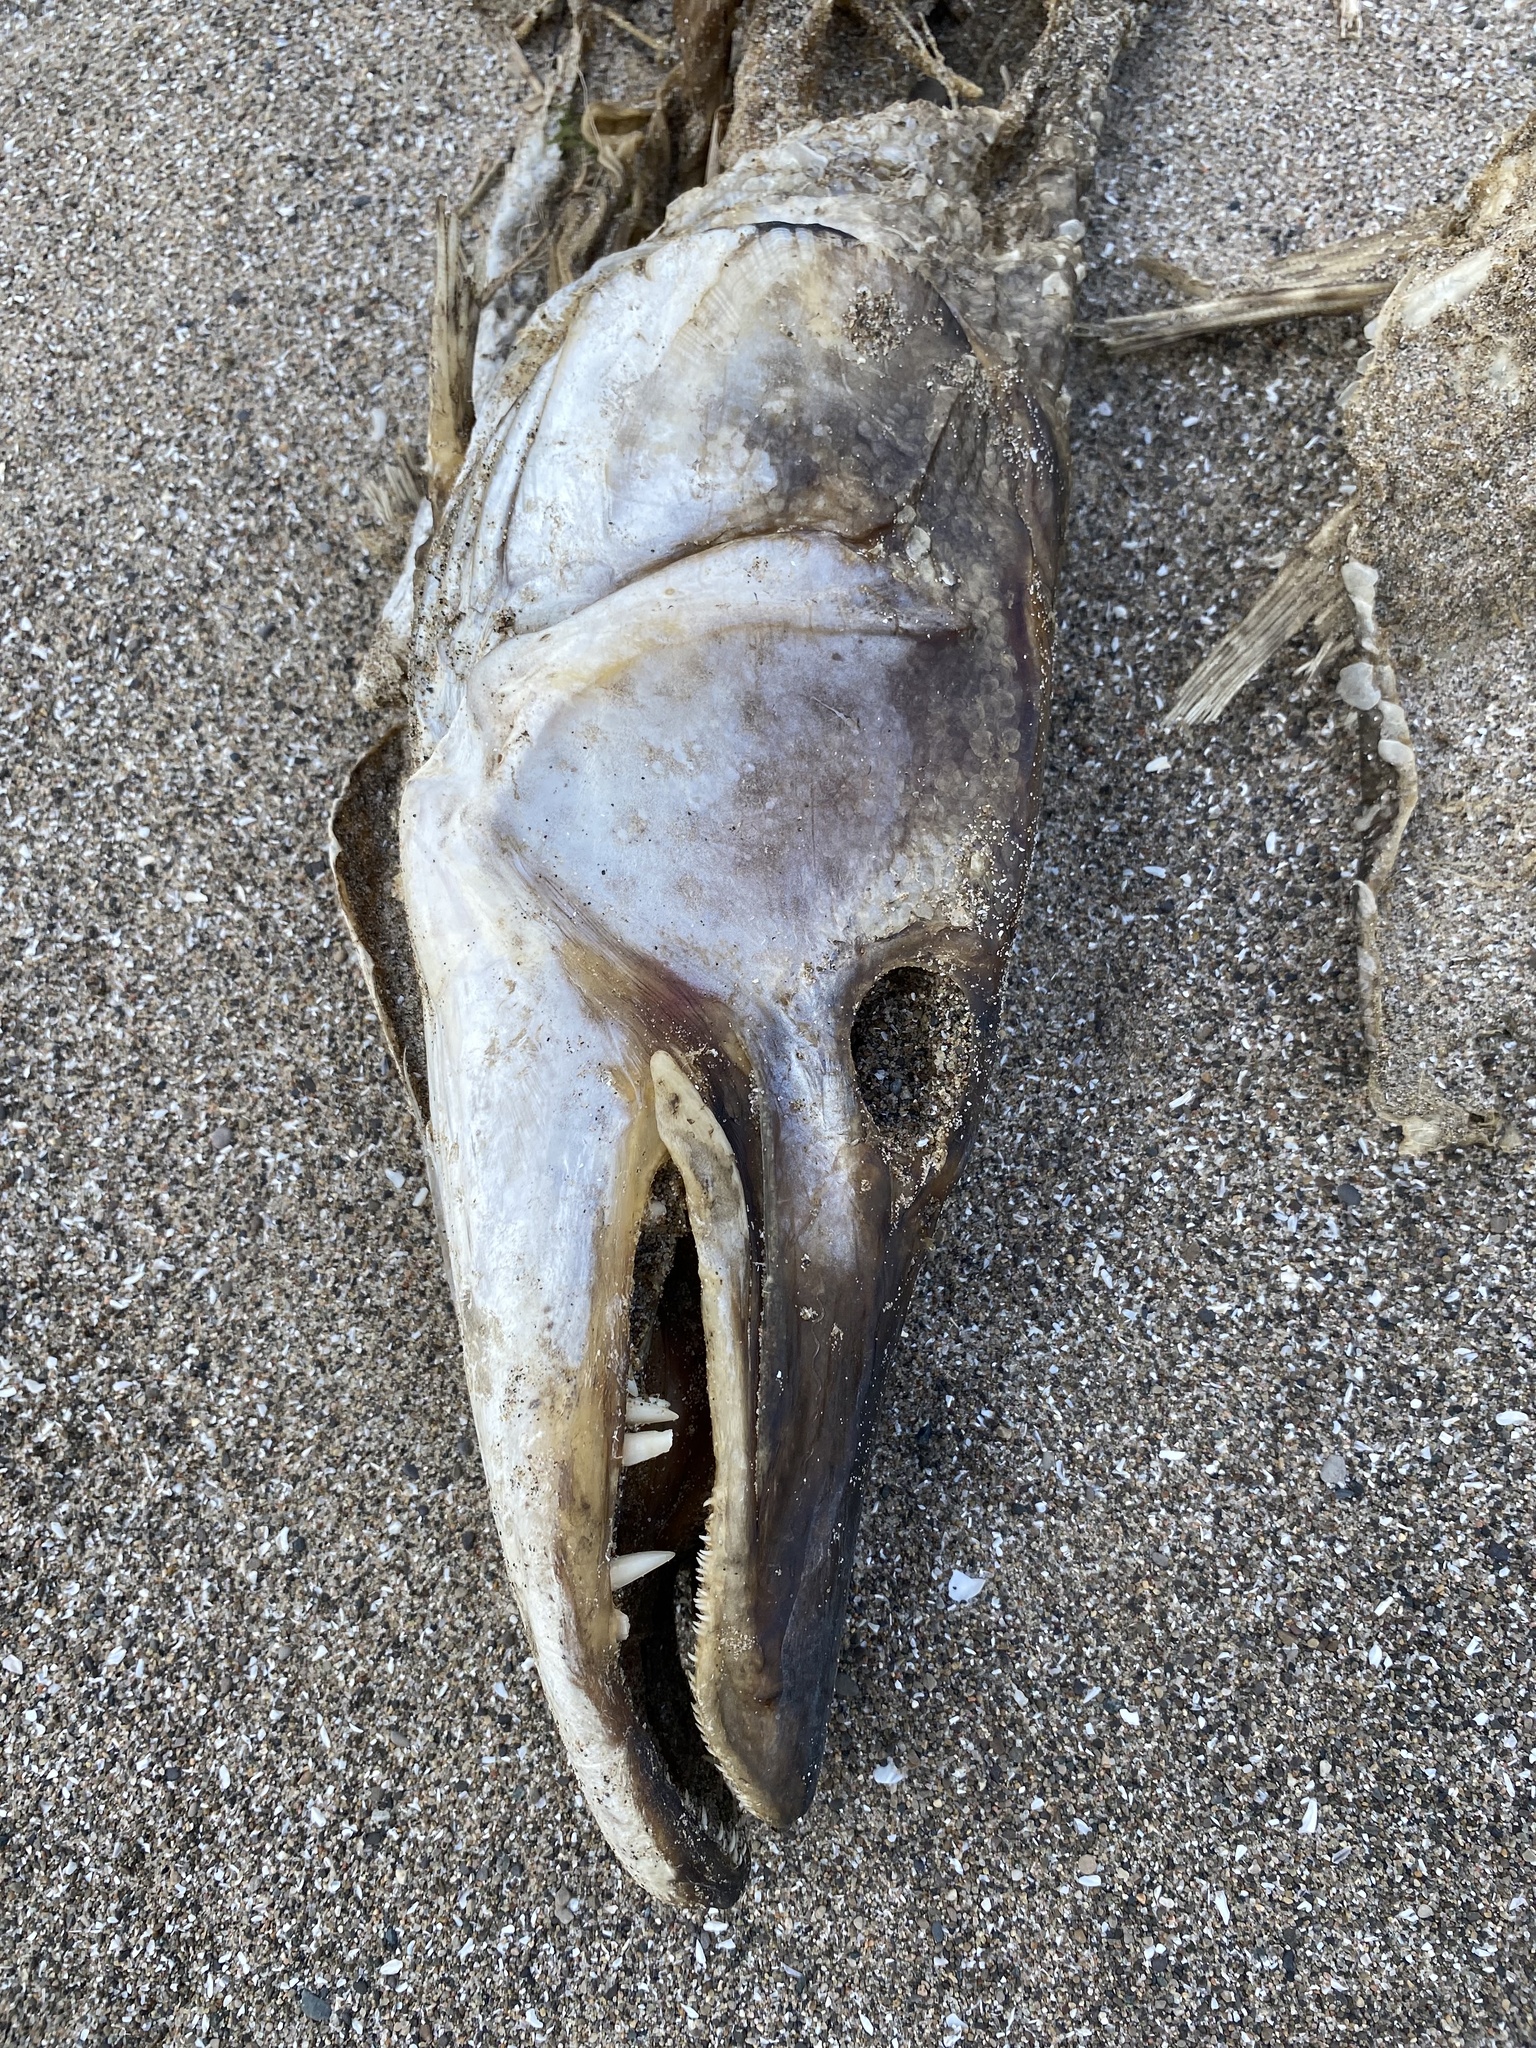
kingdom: Animalia
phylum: Chordata
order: Esociformes
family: Esocidae
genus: Esox
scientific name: Esox masquinongy
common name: Muskellunge
